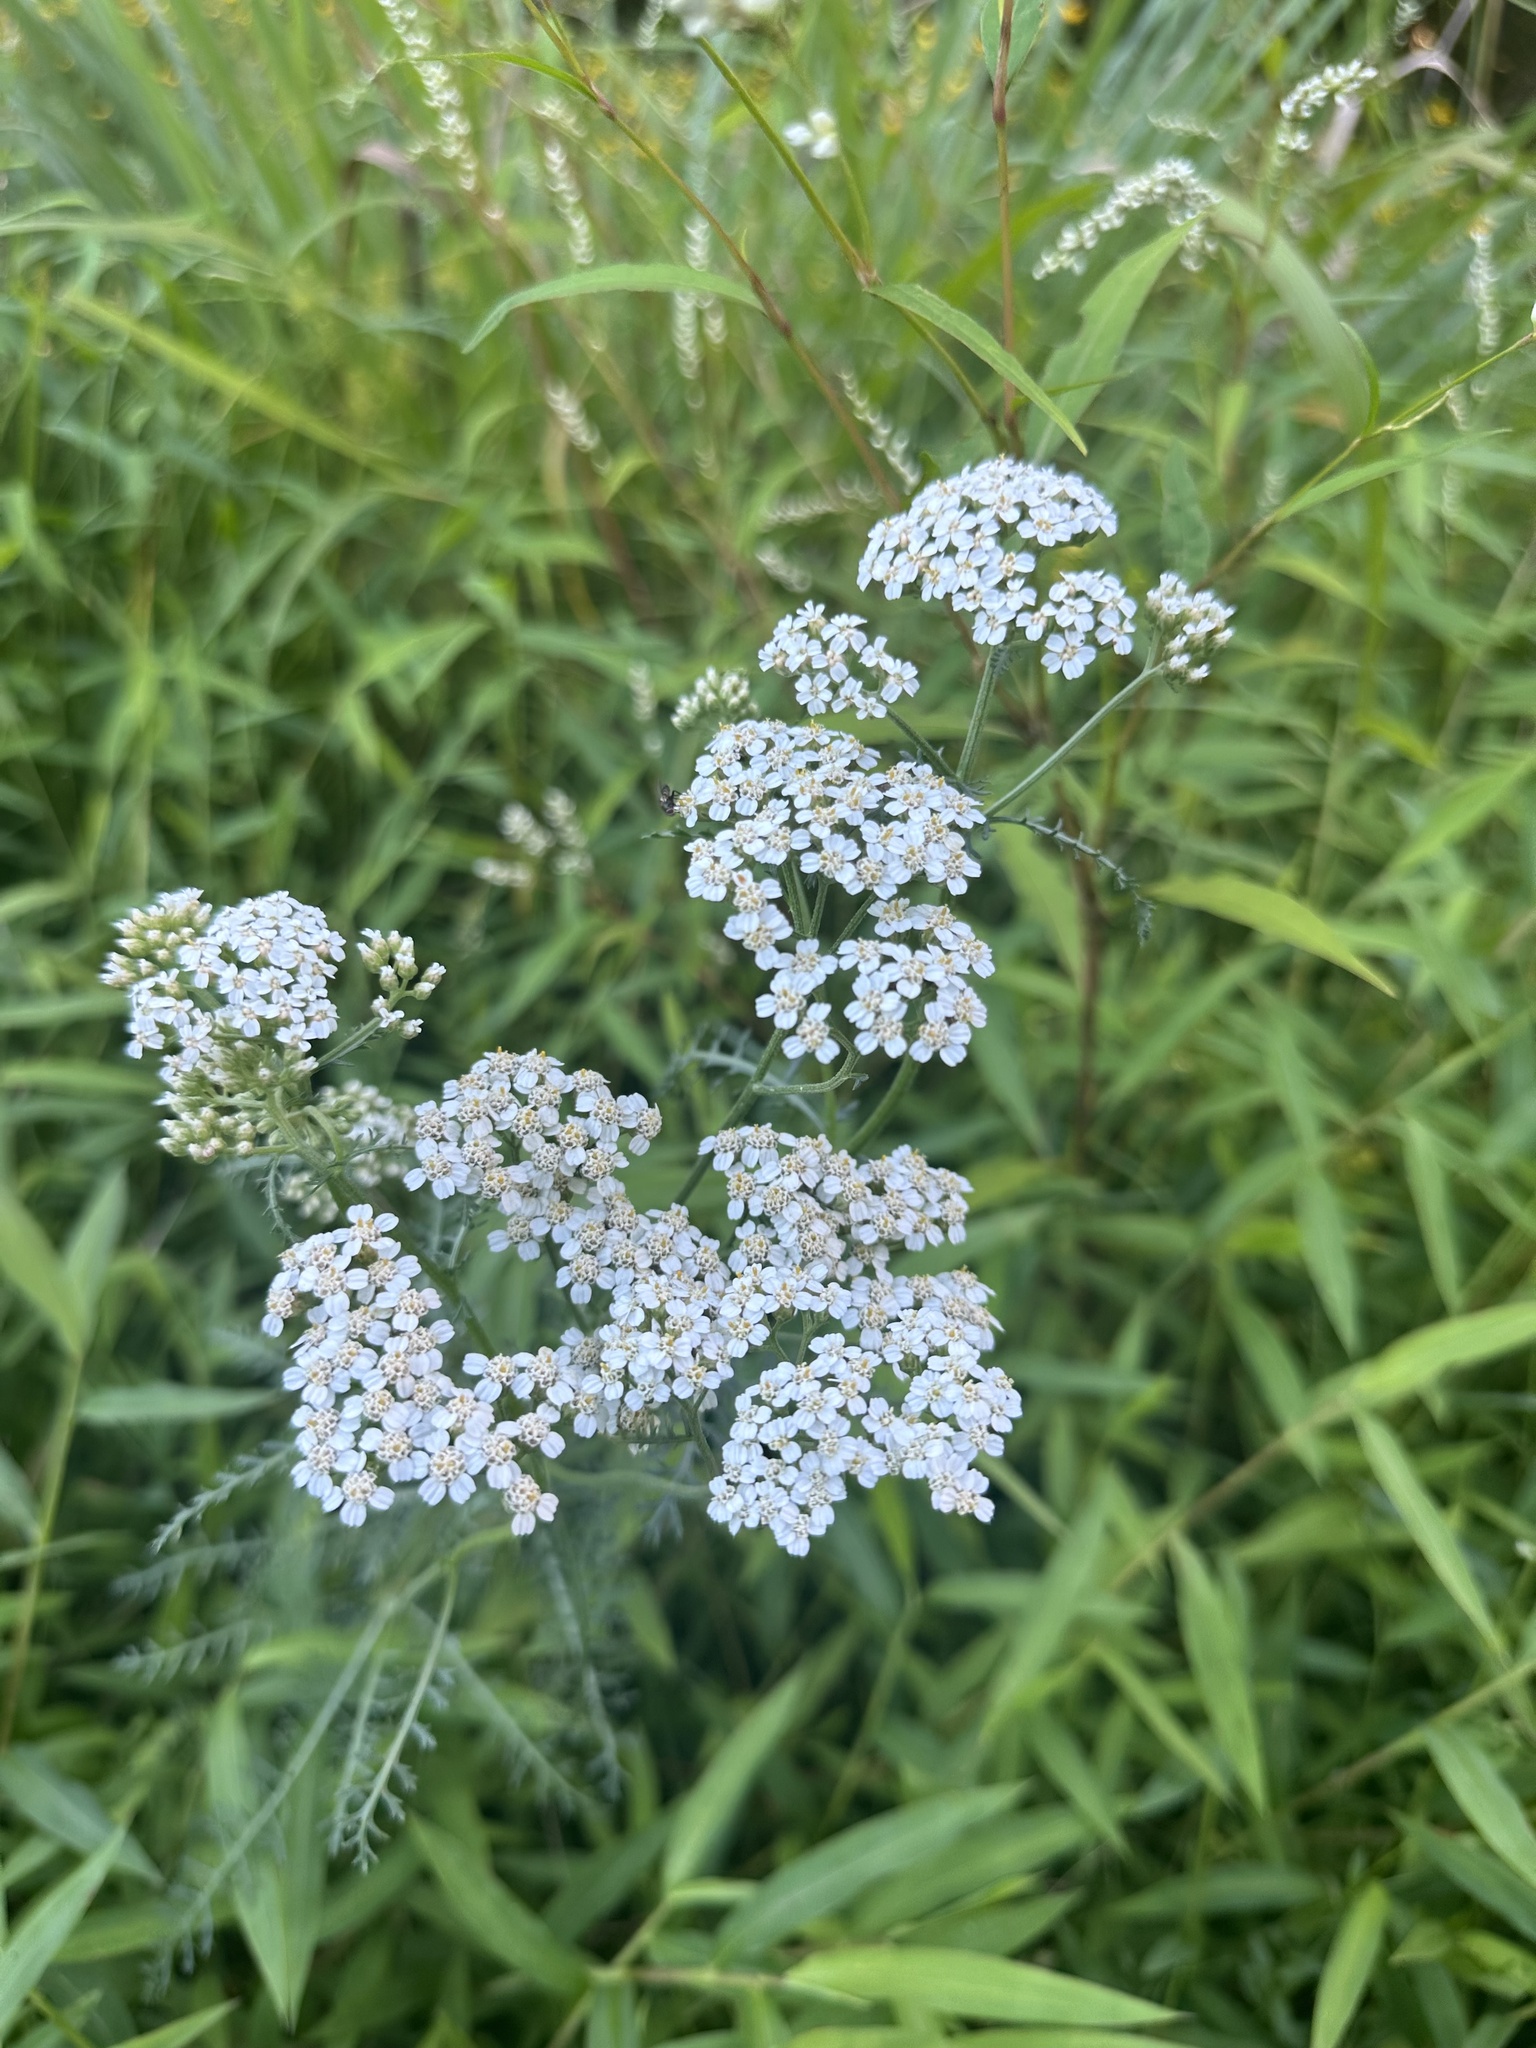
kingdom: Plantae
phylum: Tracheophyta
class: Magnoliopsida
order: Asterales
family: Asteraceae
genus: Achillea
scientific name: Achillea millefolium
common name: Yarrow
